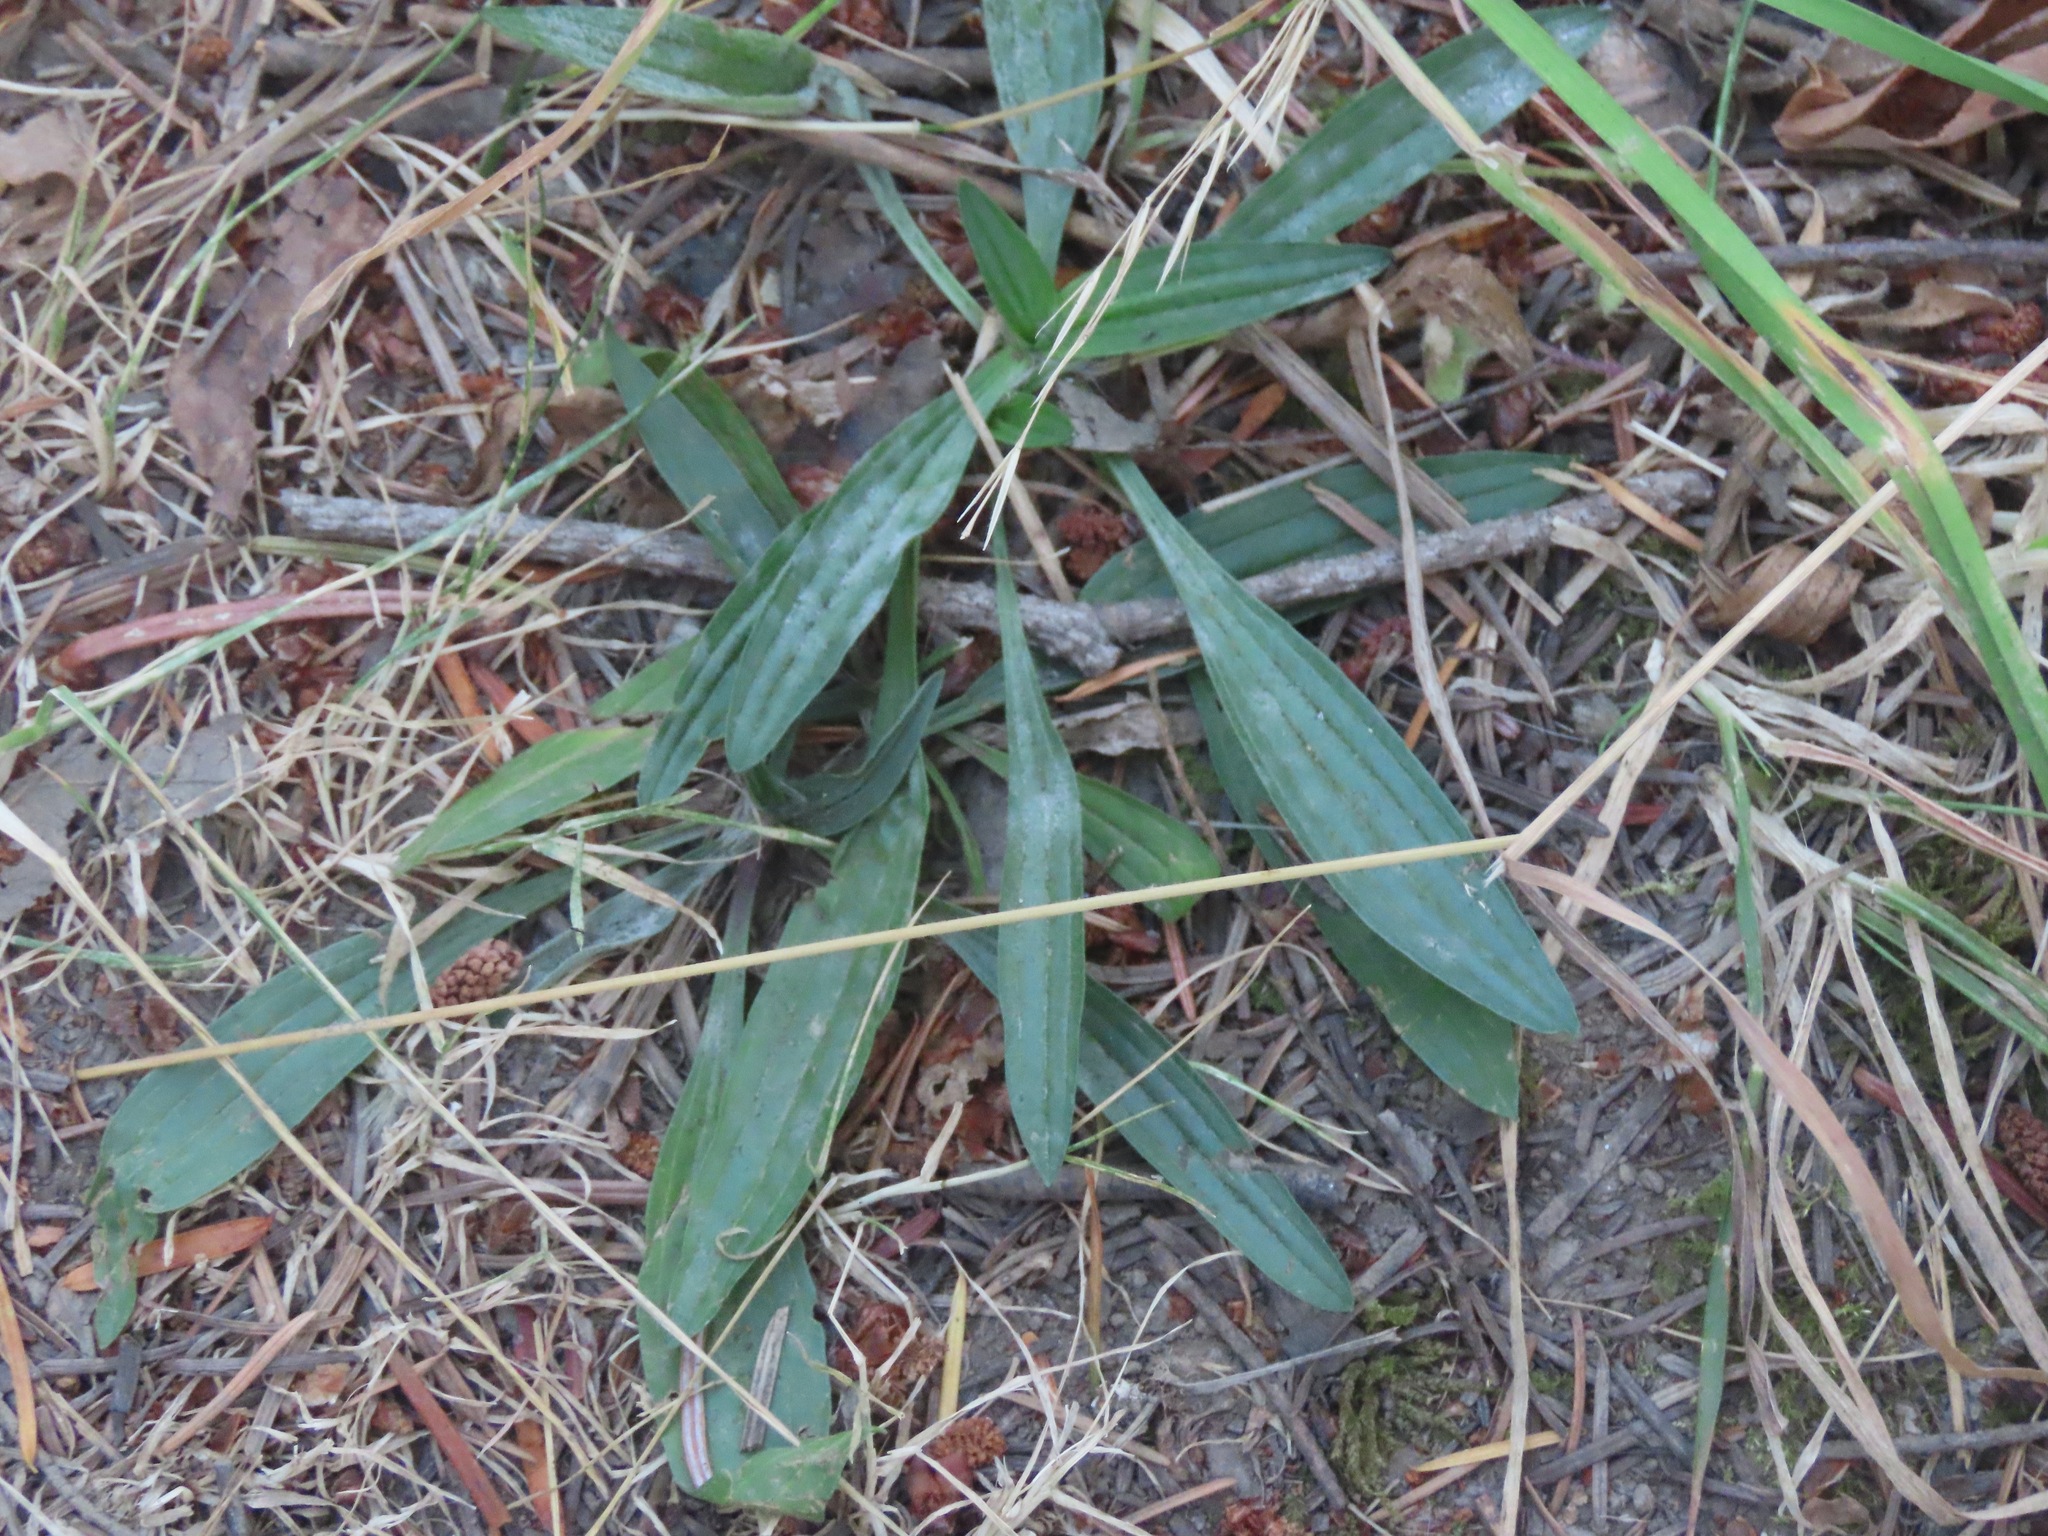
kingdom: Plantae
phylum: Tracheophyta
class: Magnoliopsida
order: Lamiales
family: Plantaginaceae
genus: Plantago
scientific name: Plantago lanceolata
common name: Ribwort plantain
